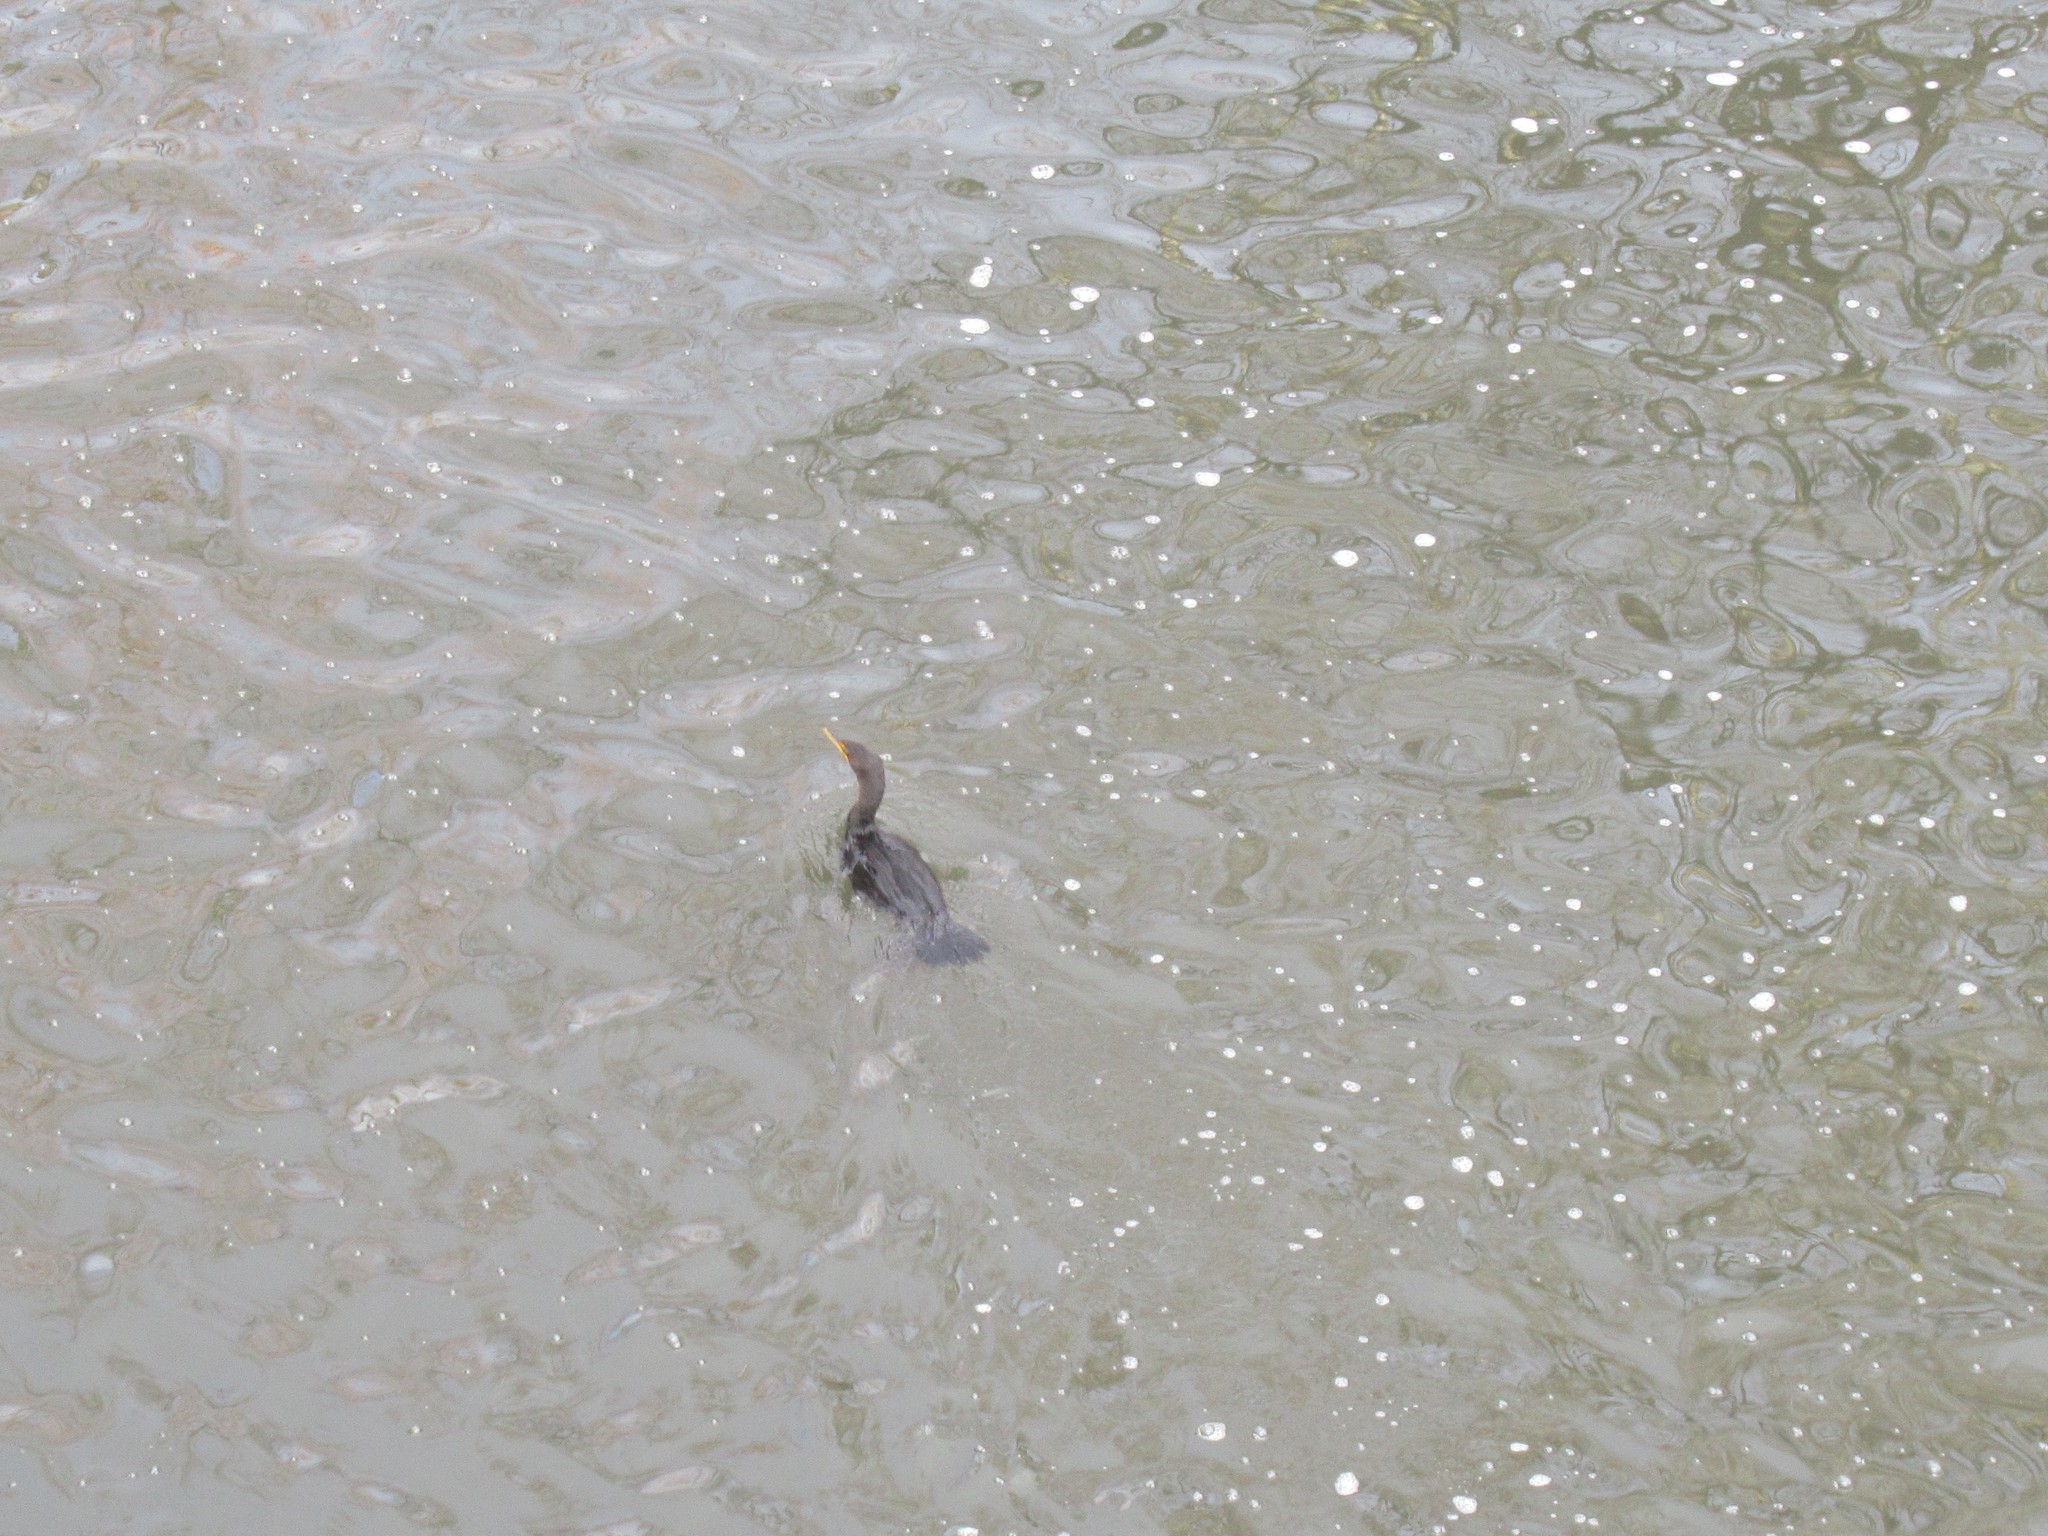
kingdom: Animalia
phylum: Chordata
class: Aves
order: Suliformes
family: Phalacrocoracidae
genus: Phalacrocorax
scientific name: Phalacrocorax auritus
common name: Double-crested cormorant
